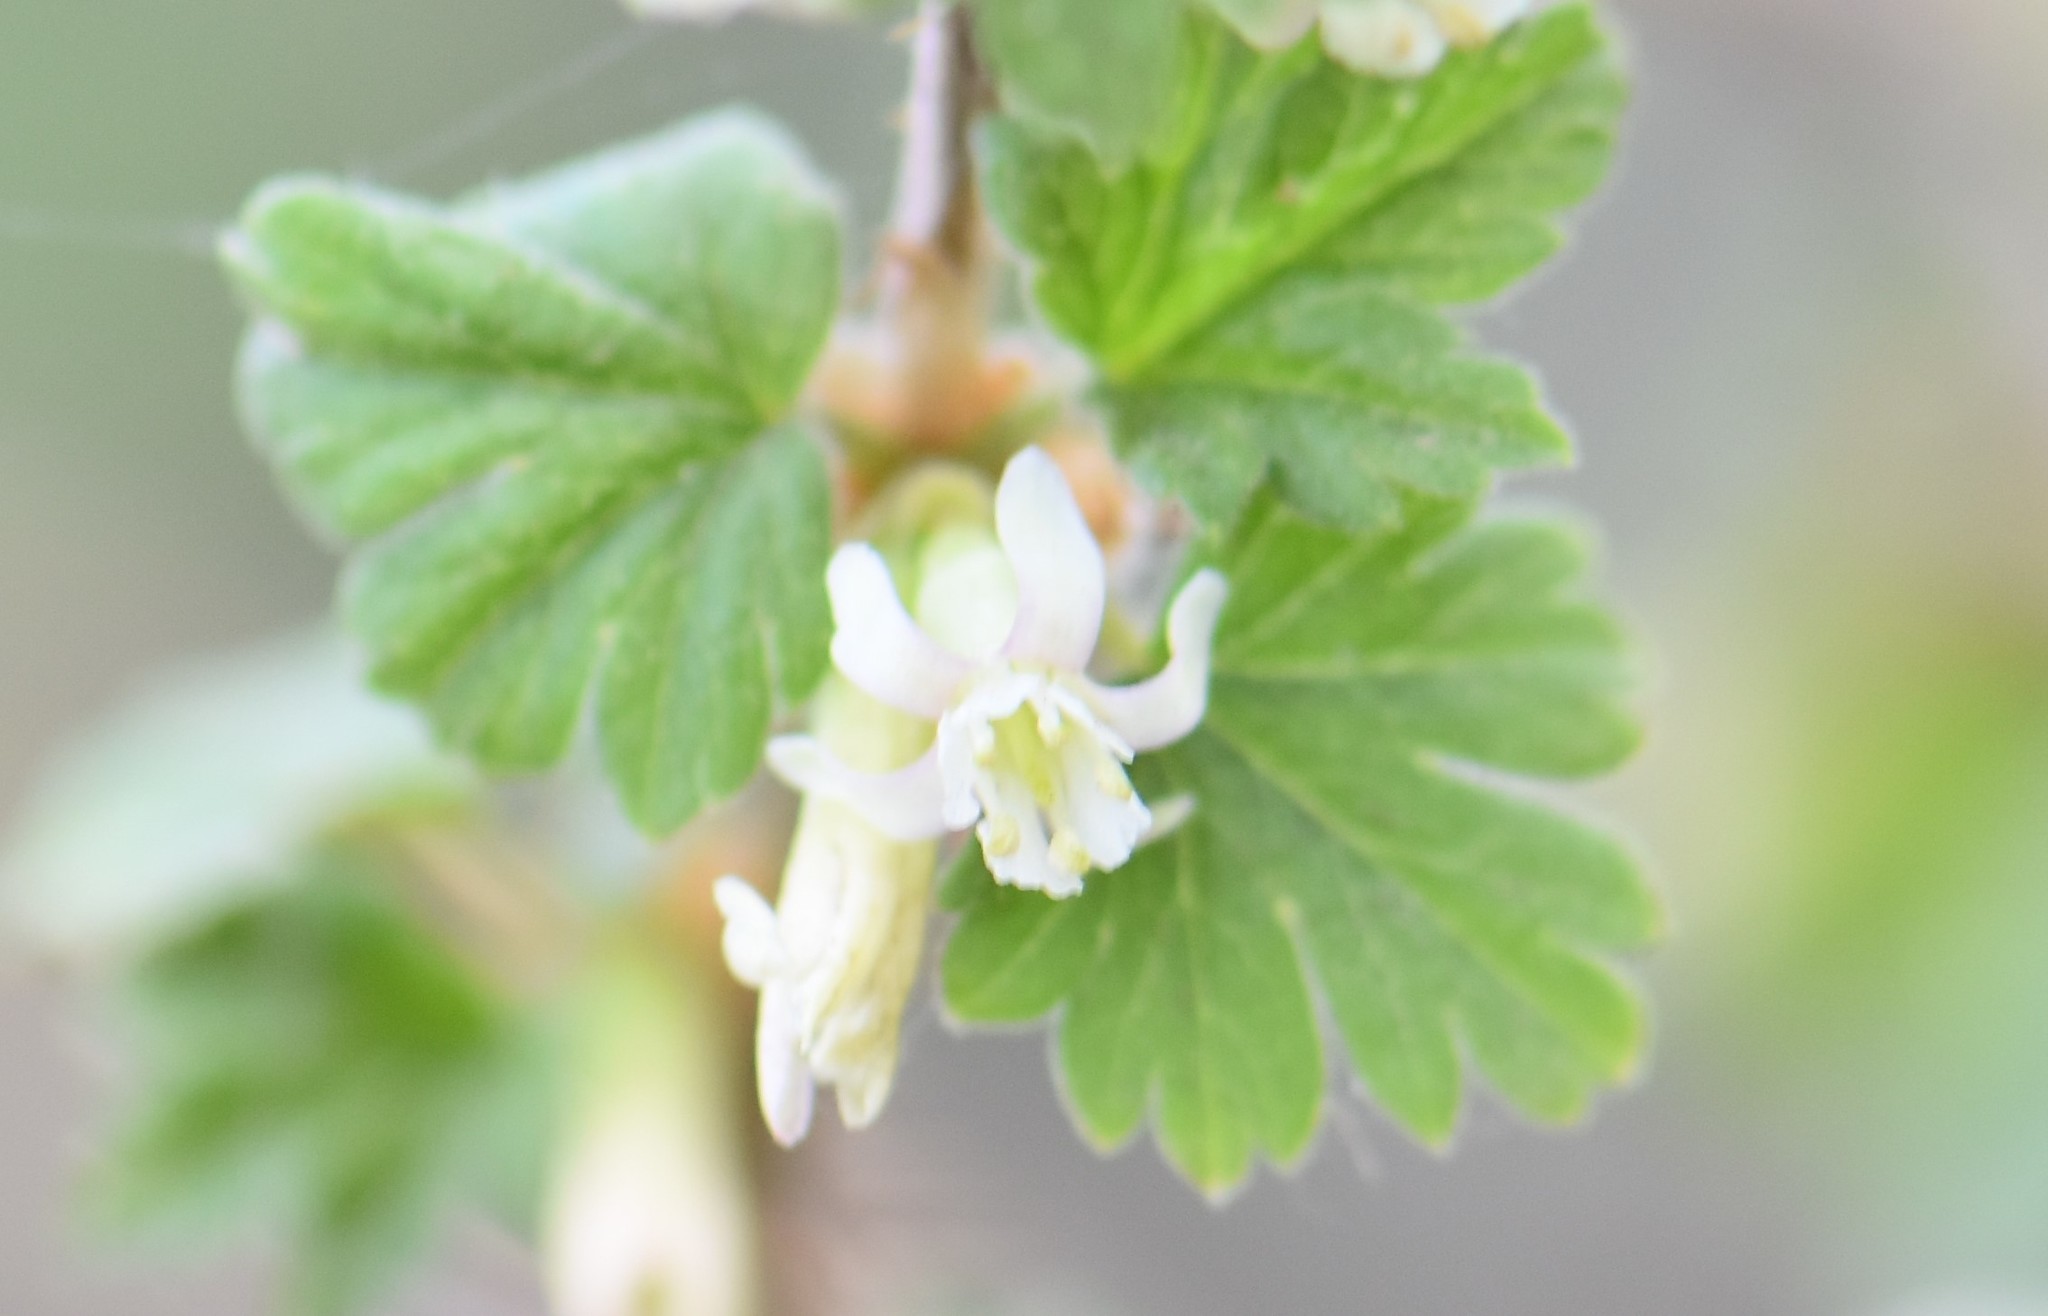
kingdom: Plantae
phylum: Tracheophyta
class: Magnoliopsida
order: Saxifragales
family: Grossulariaceae
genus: Ribes
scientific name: Ribes oxyacanthoides
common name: Northern gooseberry
